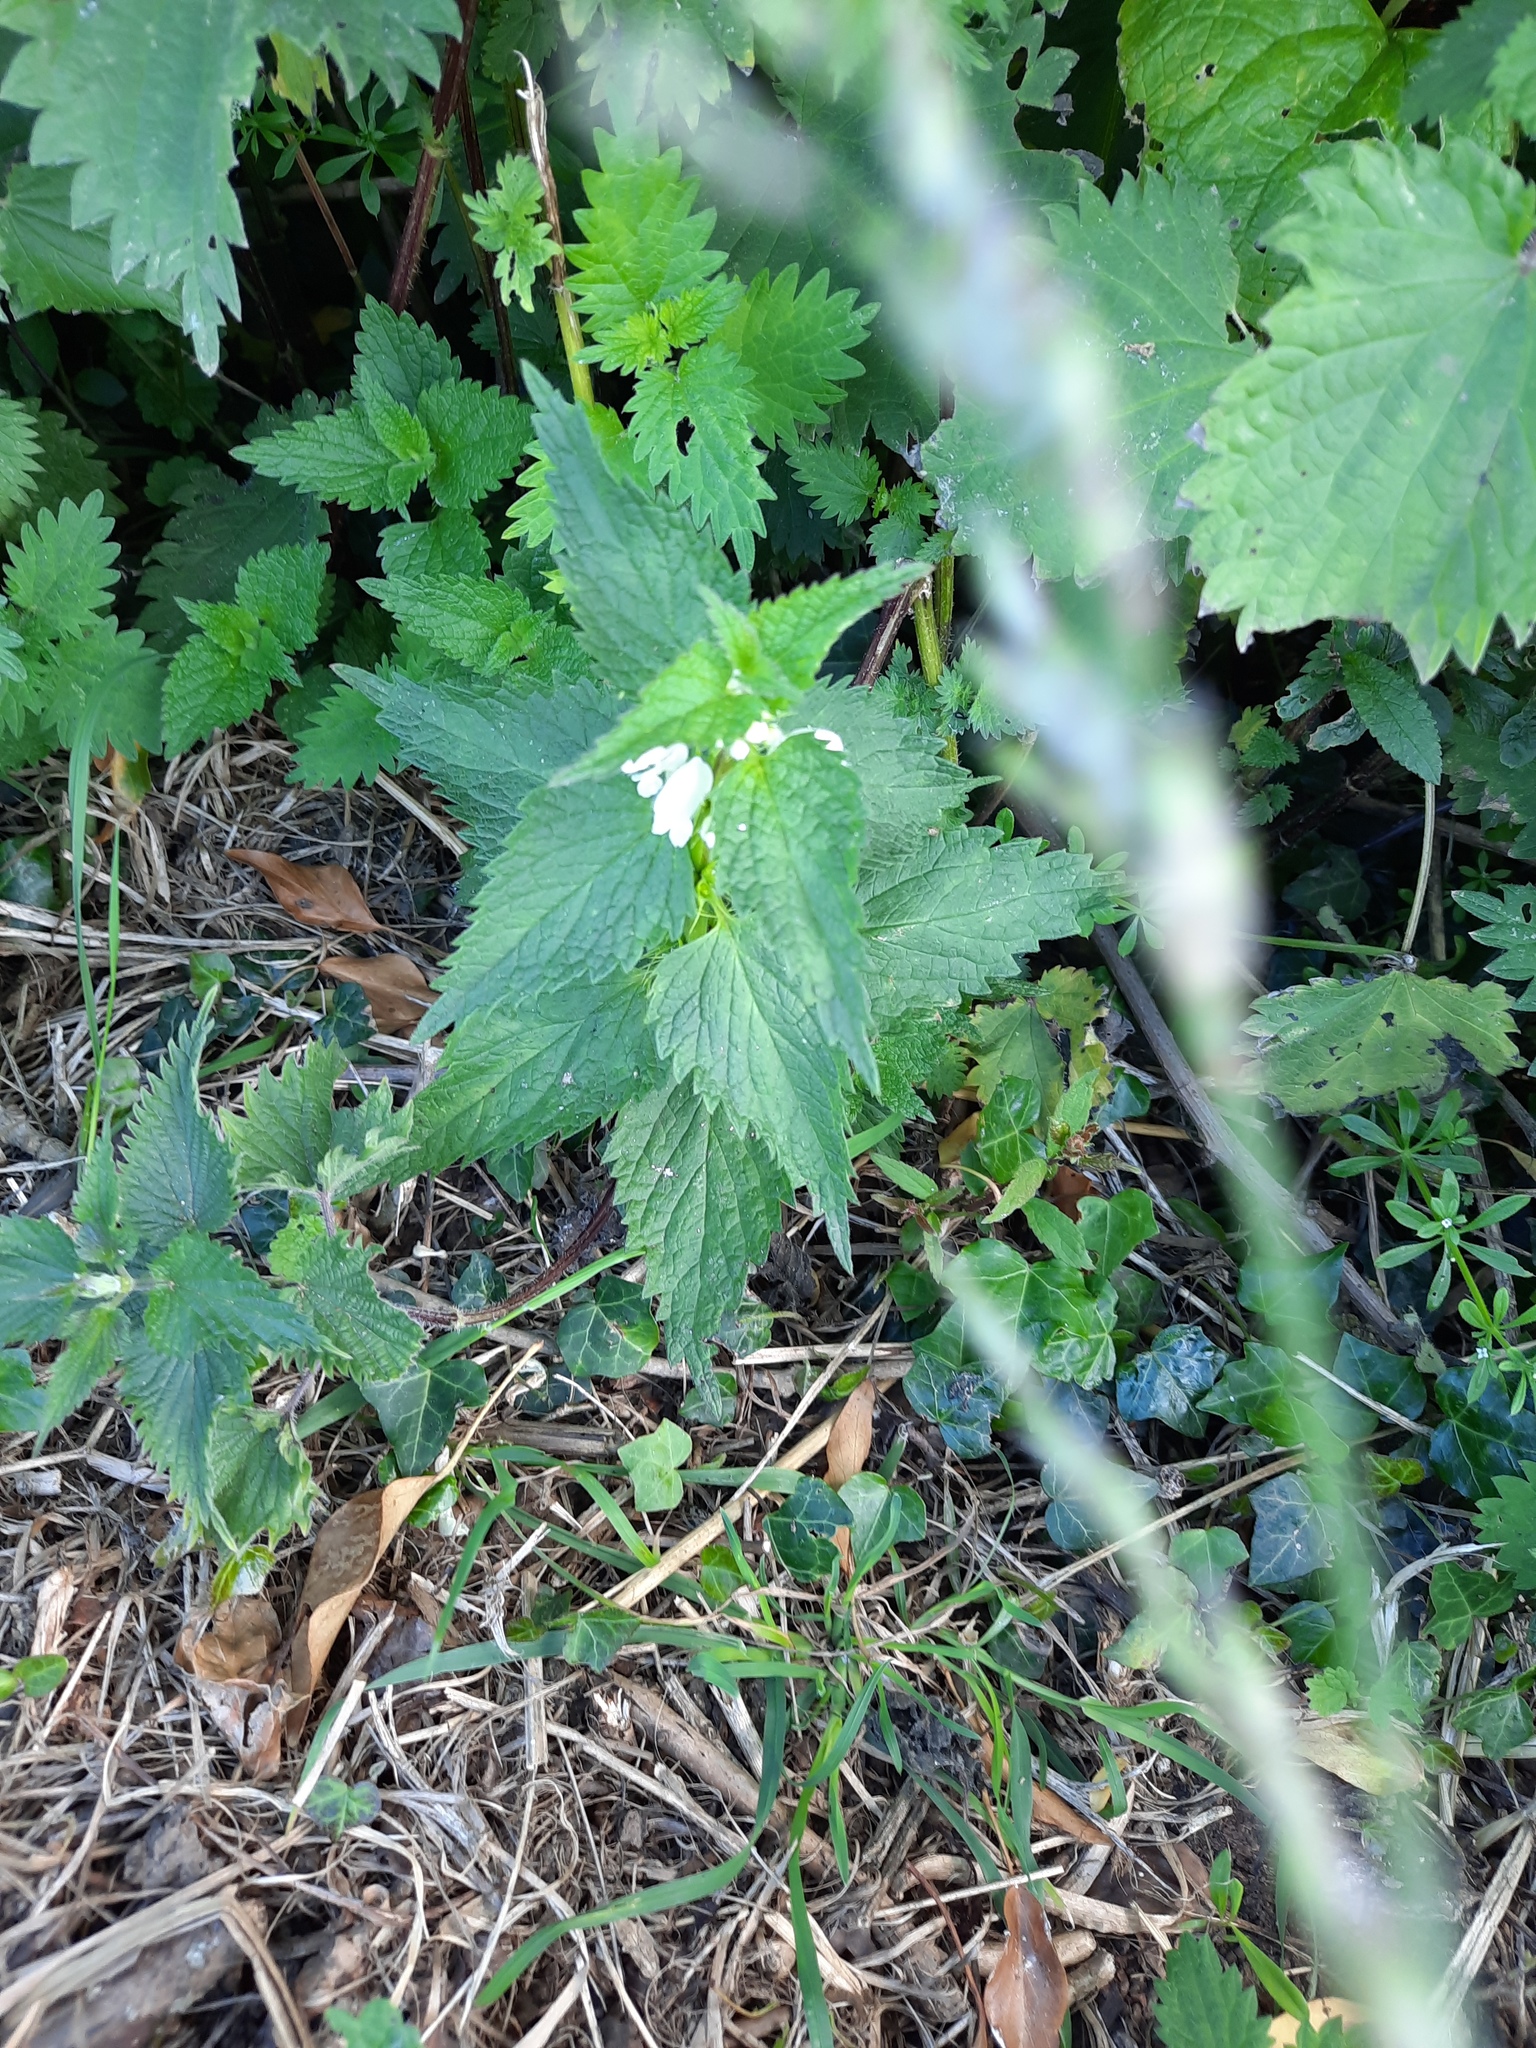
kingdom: Plantae
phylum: Tracheophyta
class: Magnoliopsida
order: Lamiales
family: Lamiaceae
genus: Lamium
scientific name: Lamium album
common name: White dead-nettle
